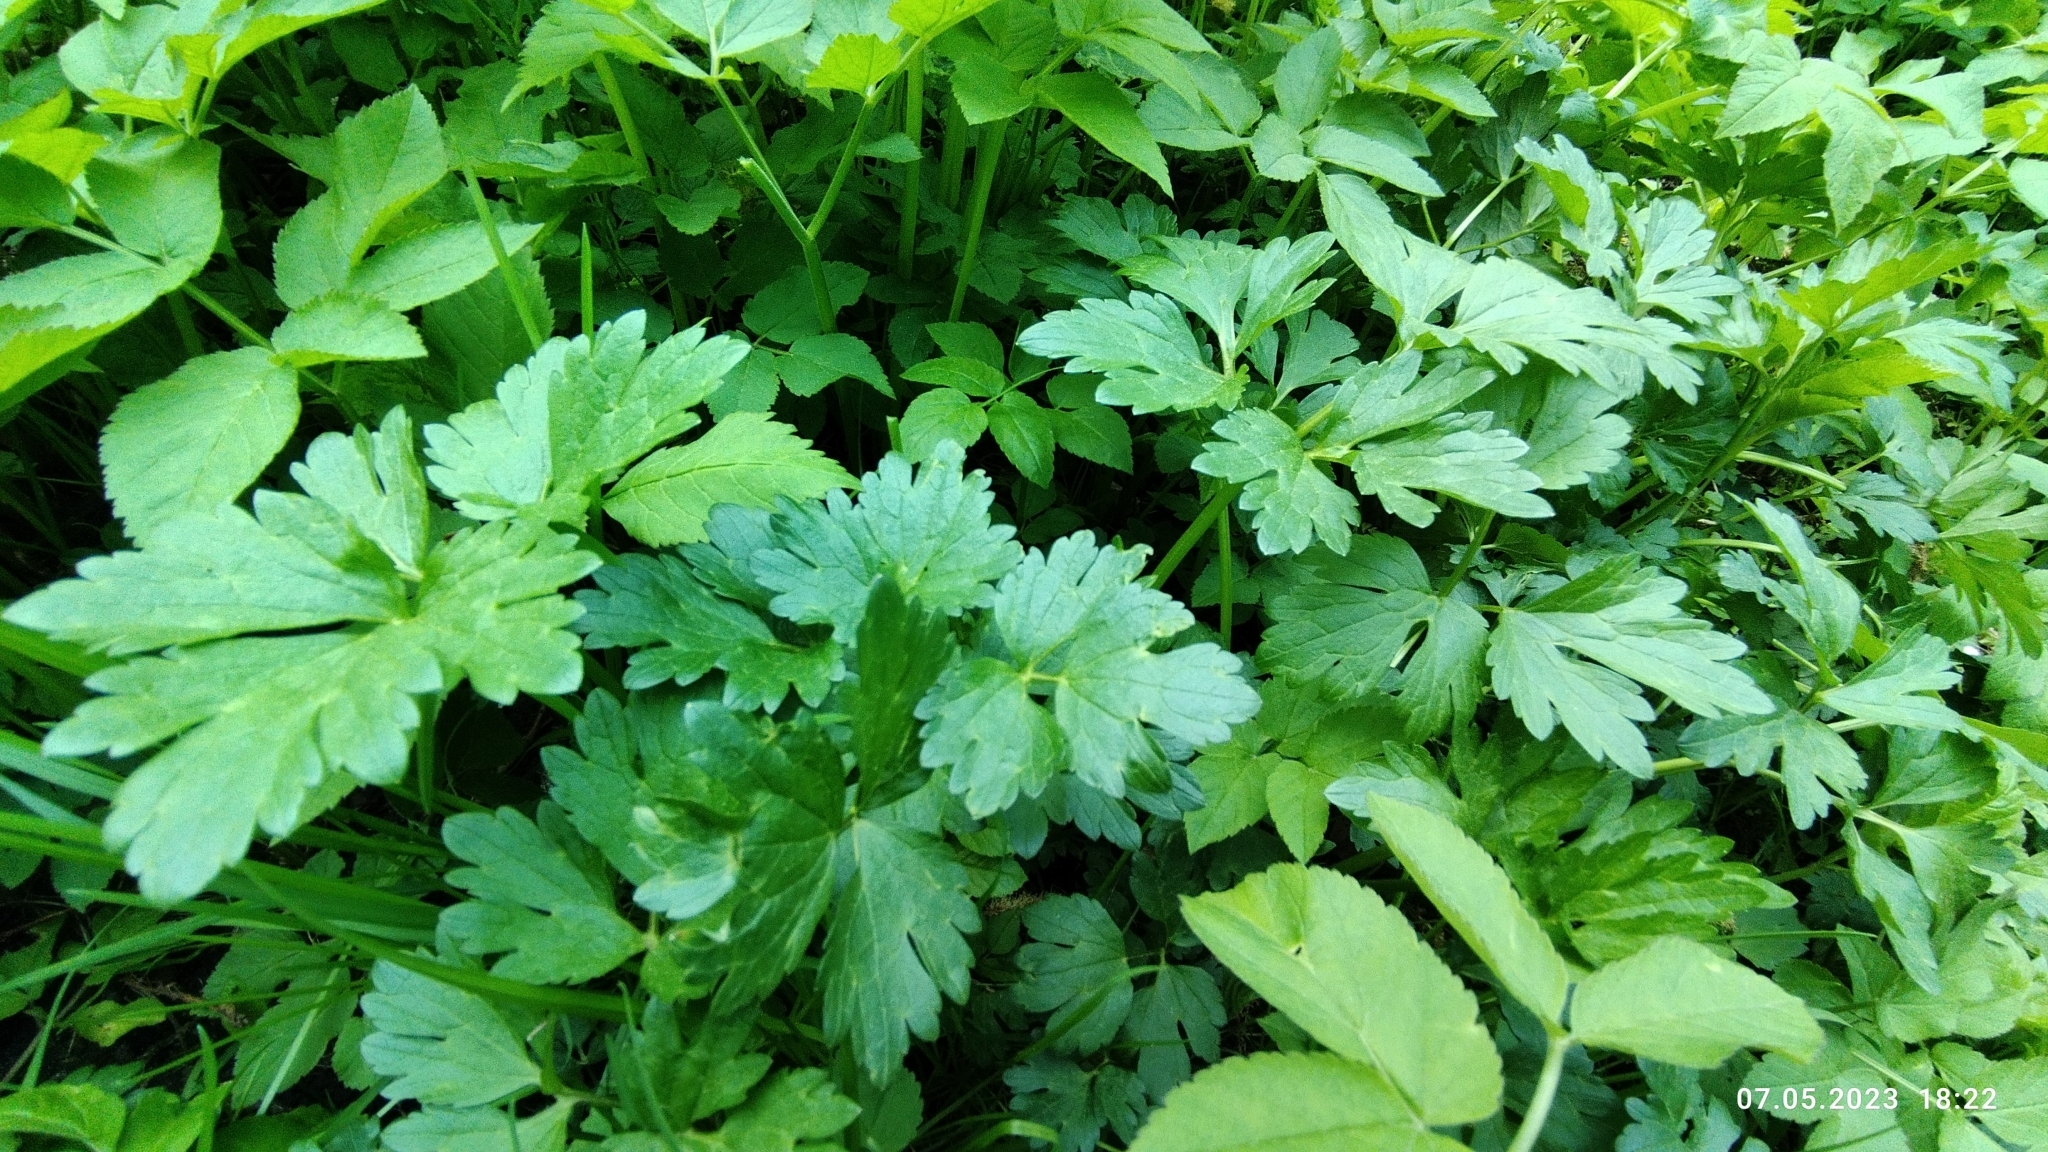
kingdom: Plantae
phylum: Tracheophyta
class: Magnoliopsida
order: Ranunculales
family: Ranunculaceae
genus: Ranunculus
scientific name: Ranunculus repens
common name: Creeping buttercup
